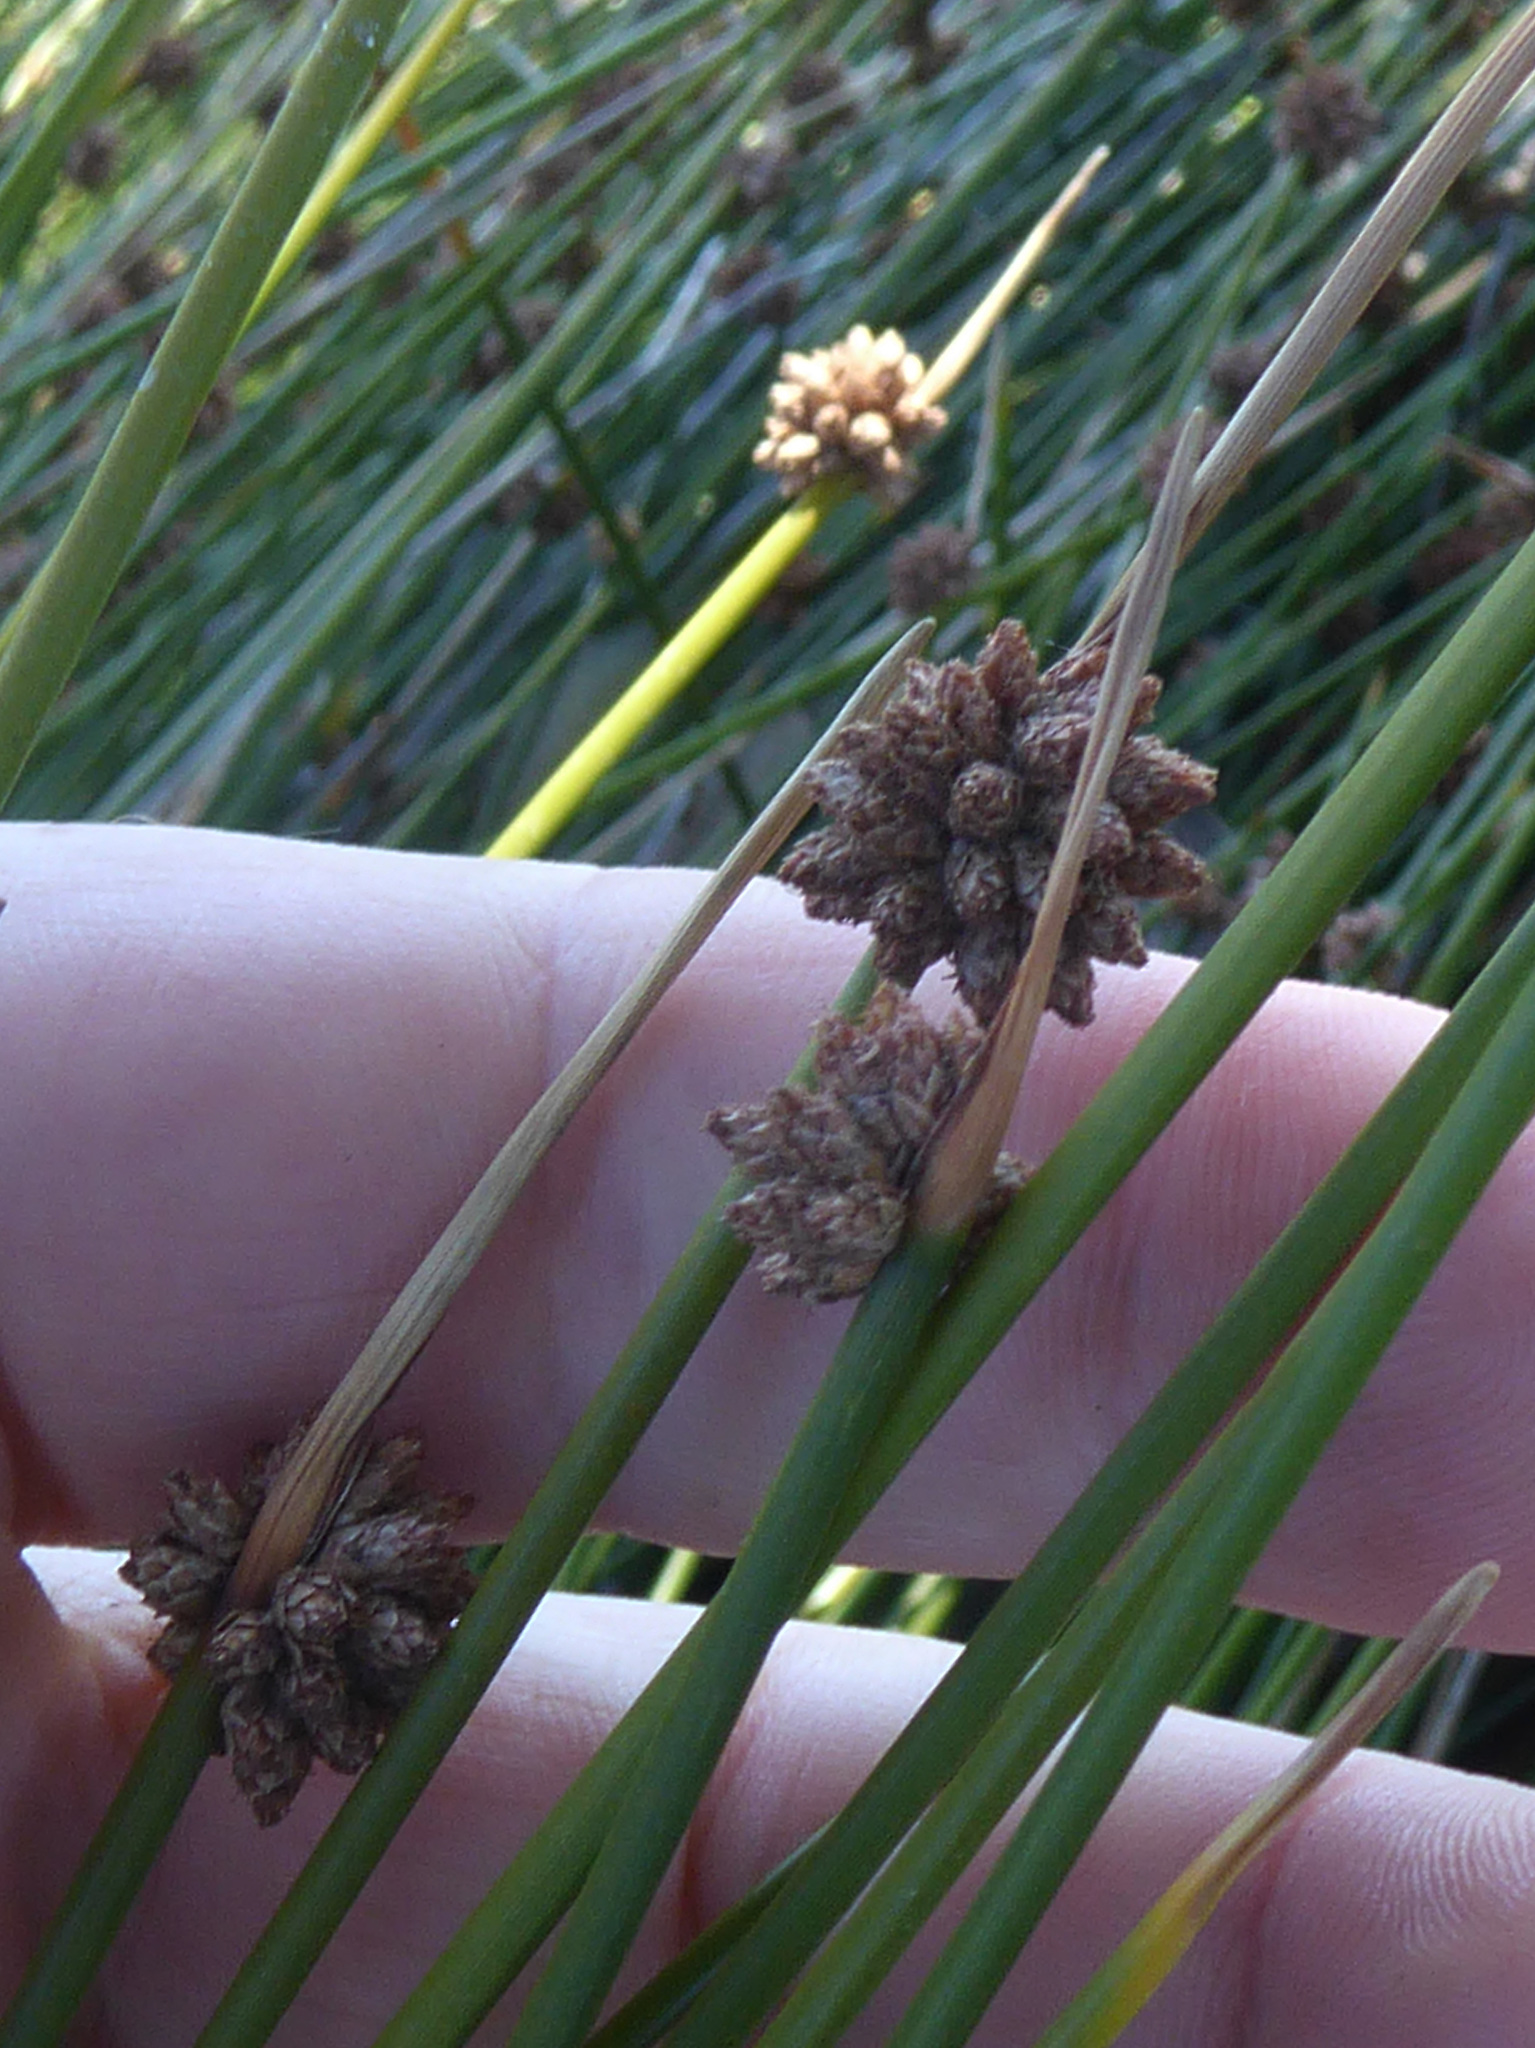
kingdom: Plantae
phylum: Tracheophyta
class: Liliopsida
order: Poales
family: Cyperaceae
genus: Ficinia
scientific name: Ficinia nodosa
